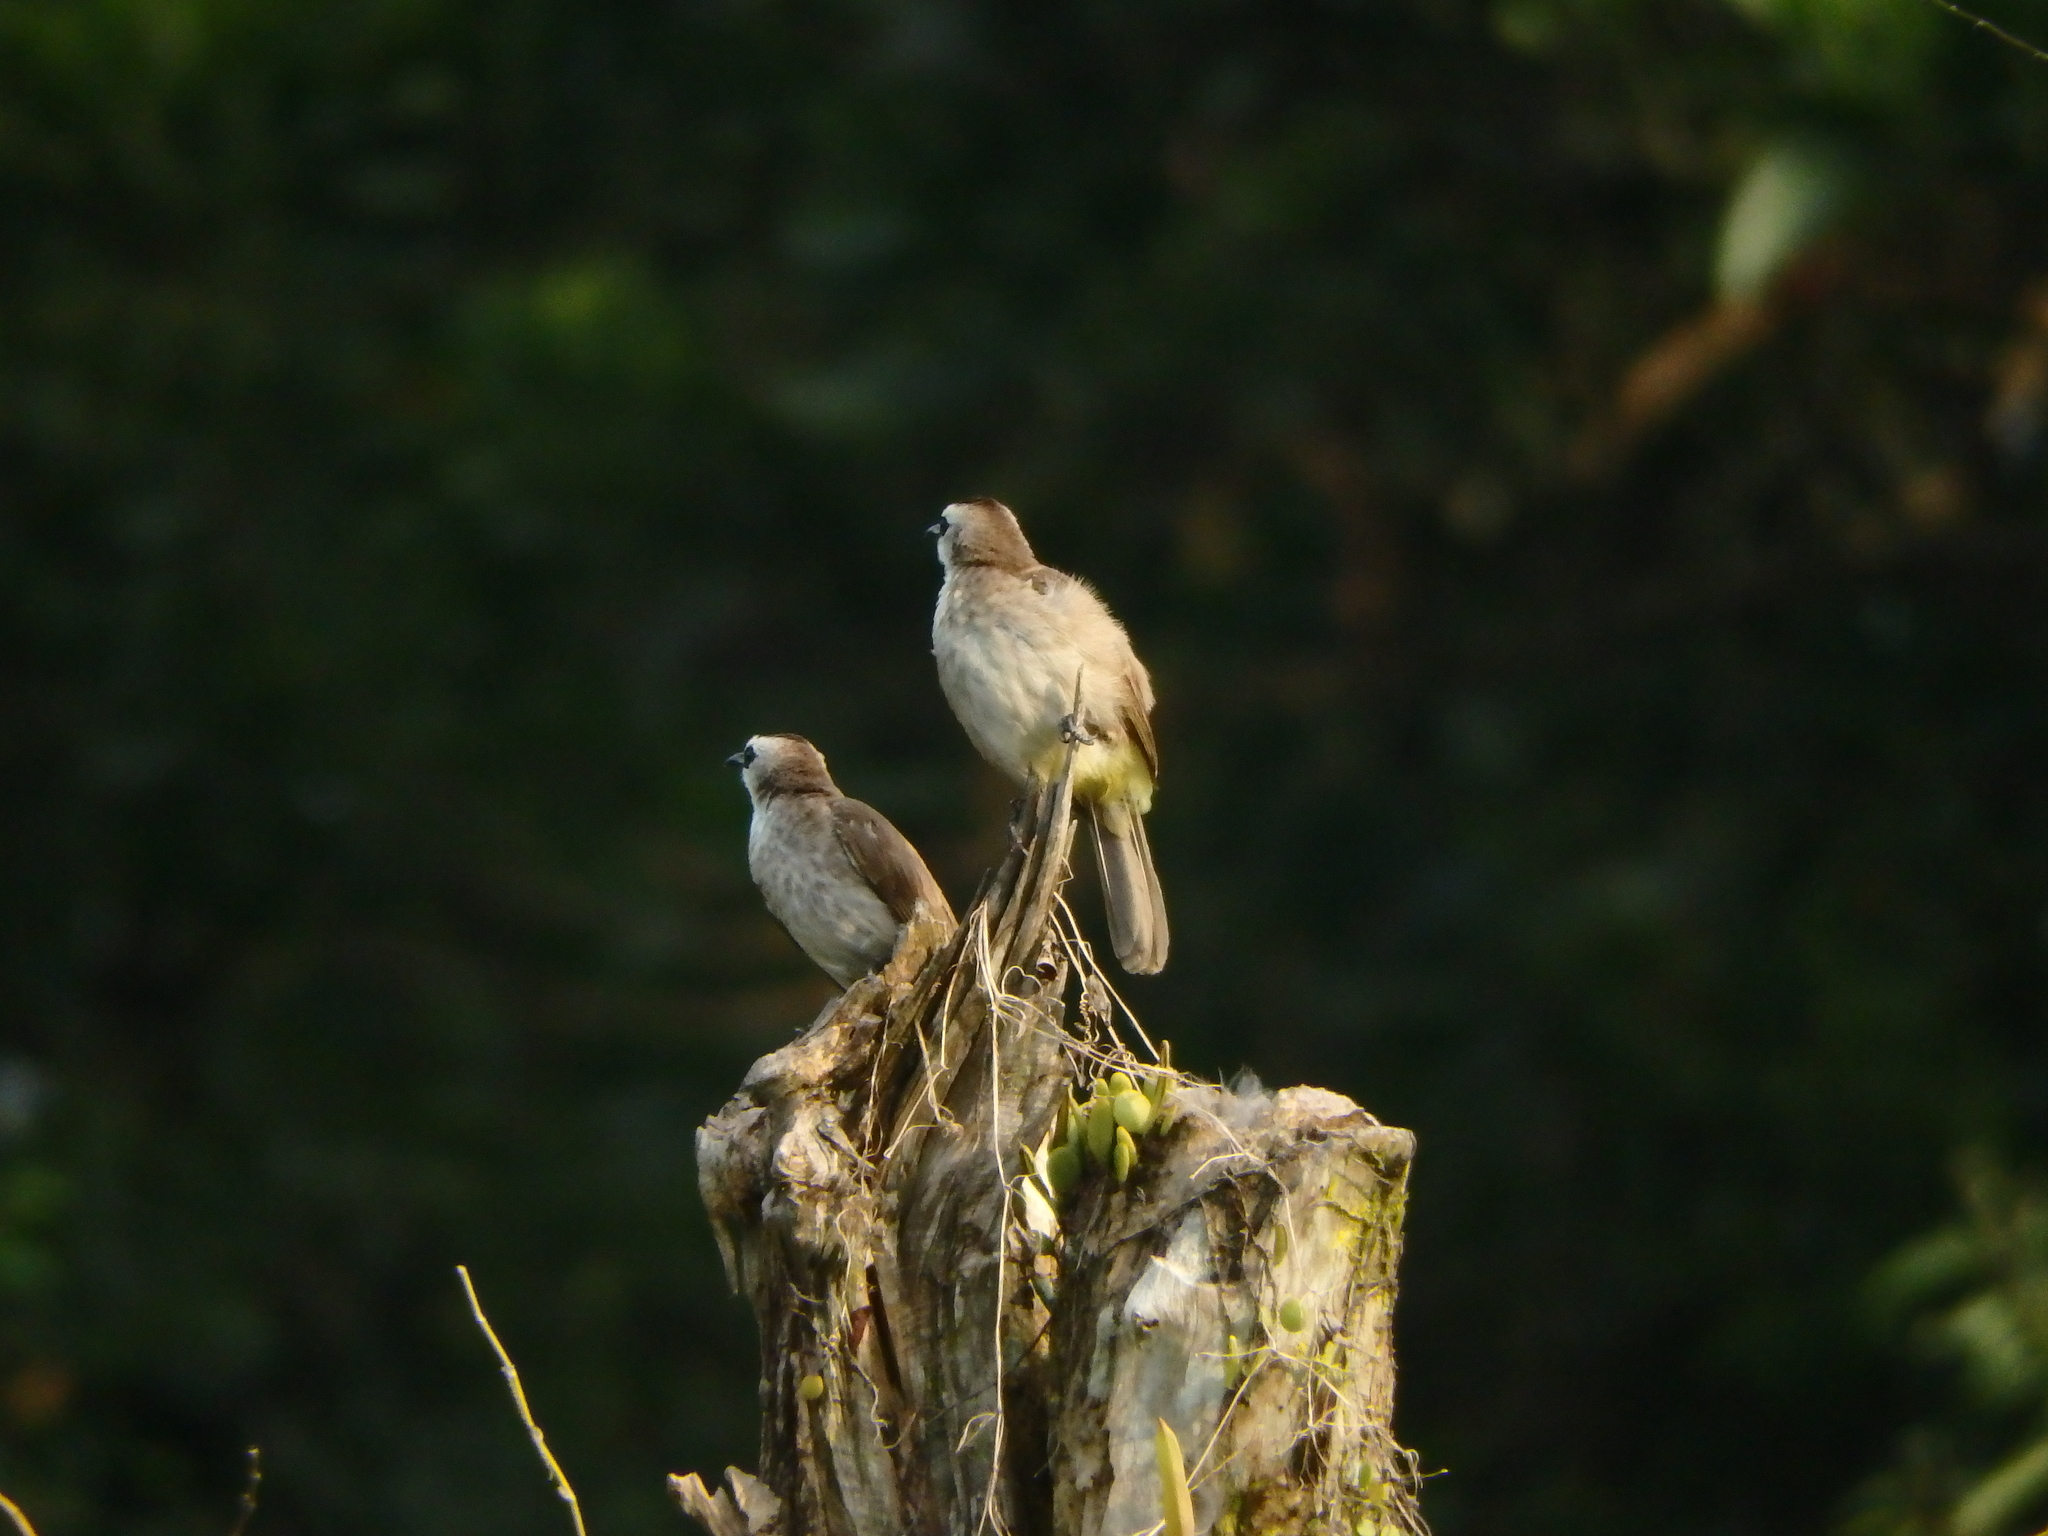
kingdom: Animalia
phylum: Chordata
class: Aves
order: Passeriformes
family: Pycnonotidae
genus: Pycnonotus
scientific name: Pycnonotus goiavier
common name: Yellow-vented bulbul
